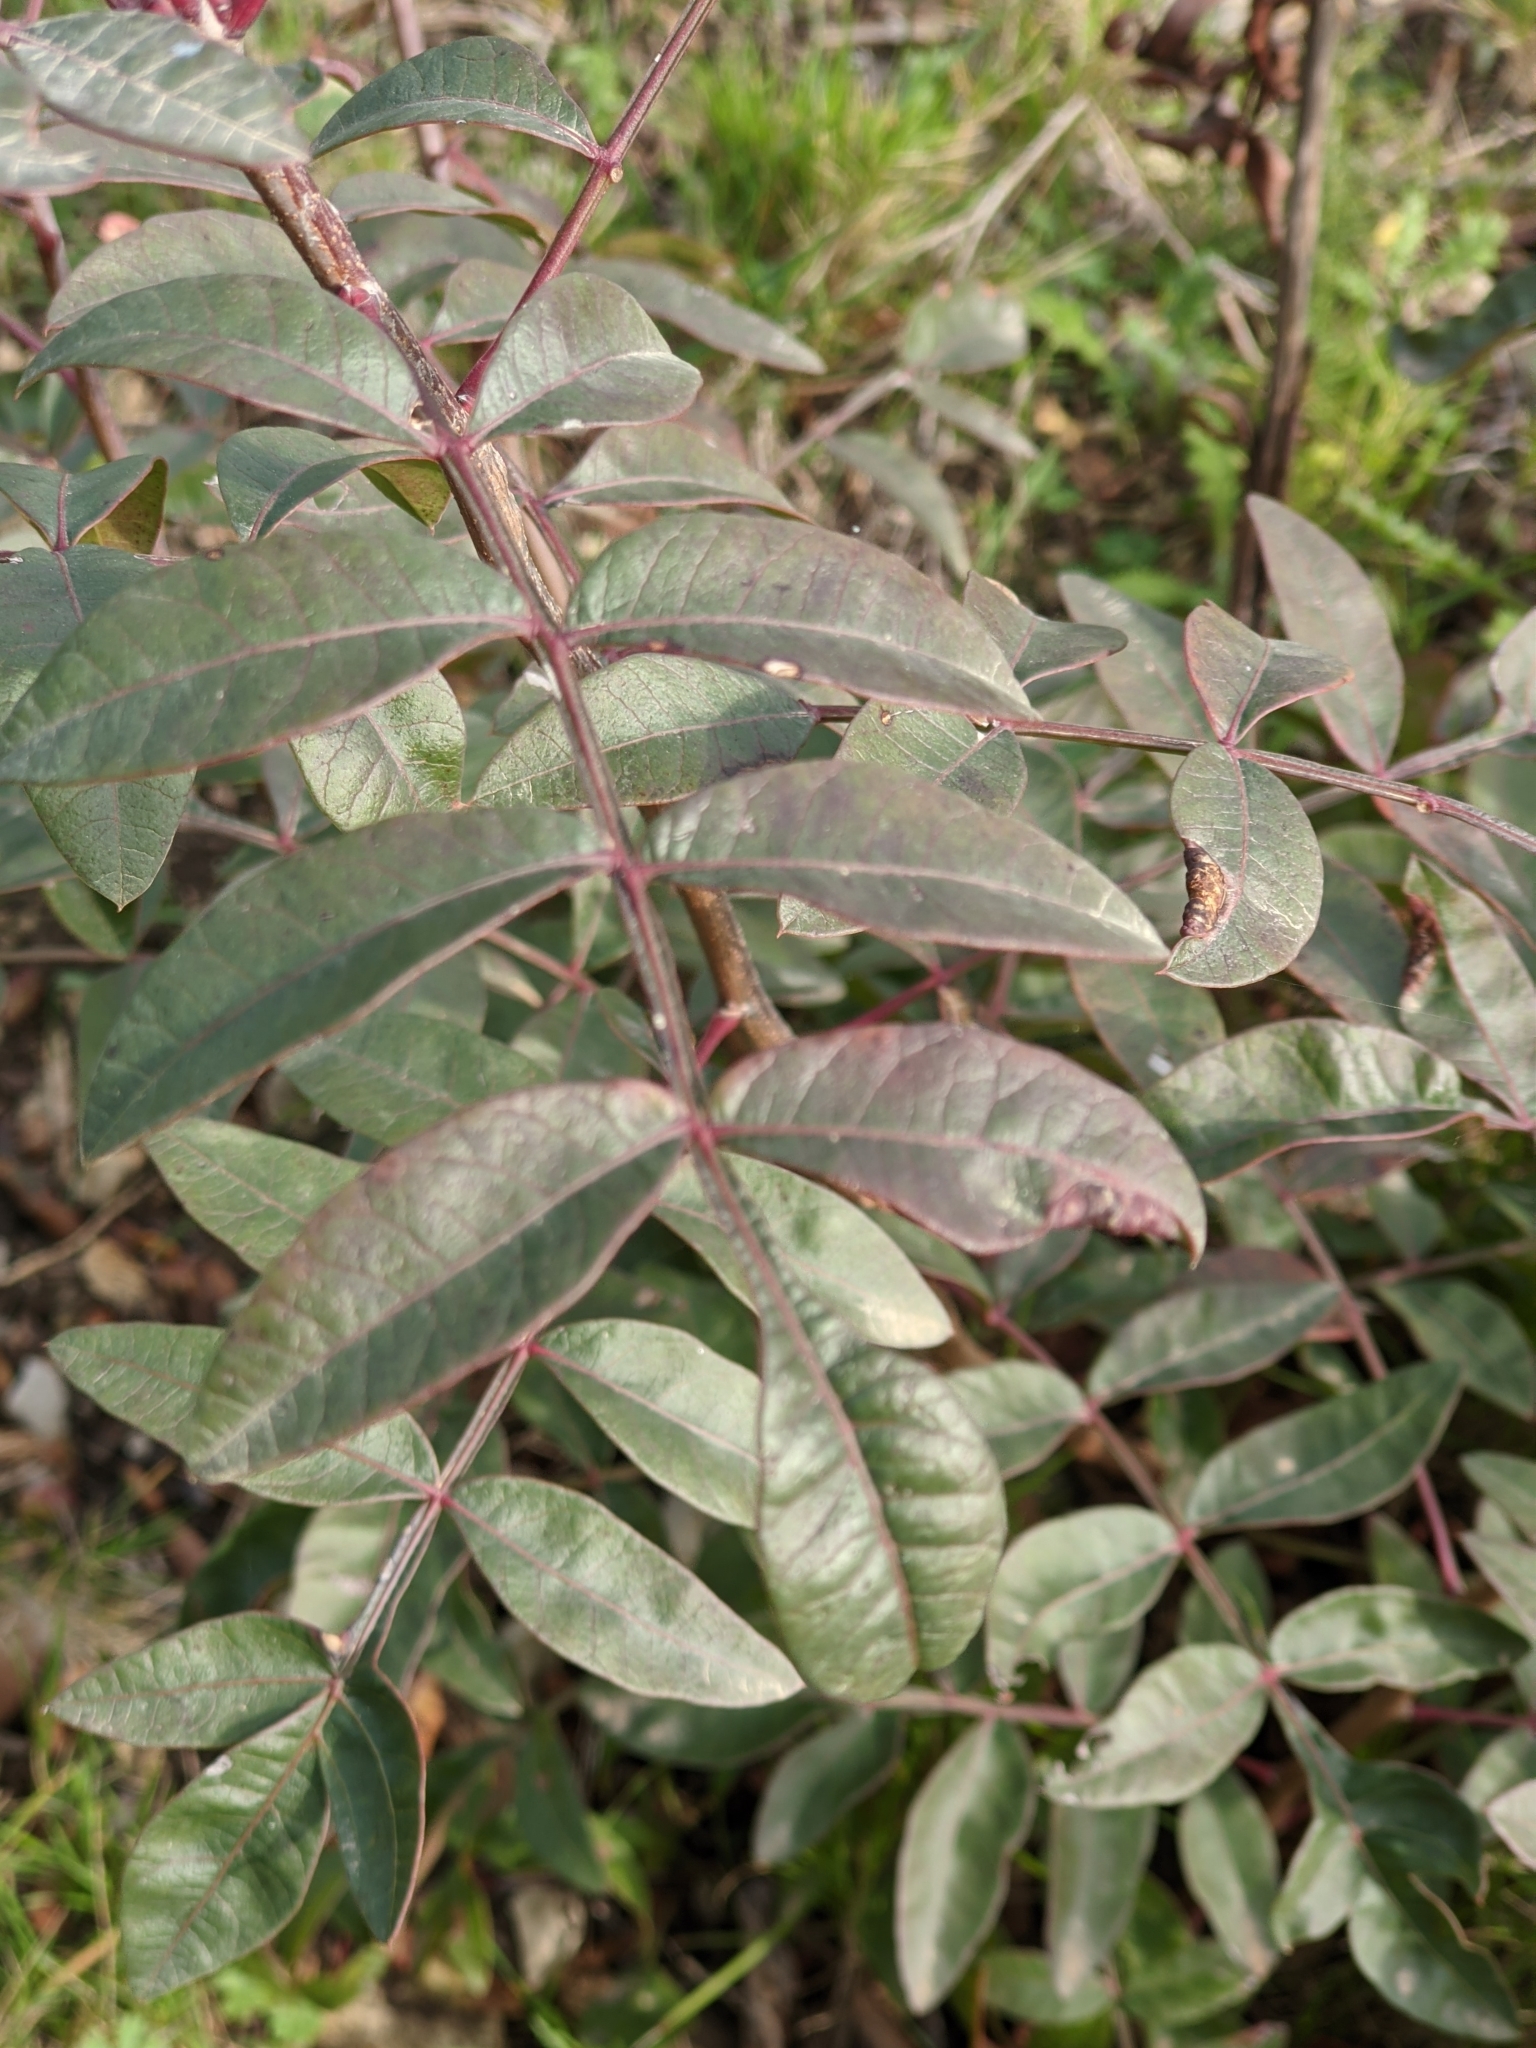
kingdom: Plantae
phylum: Tracheophyta
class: Magnoliopsida
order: Sapindales
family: Anacardiaceae
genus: Pistacia
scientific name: Pistacia saportae
